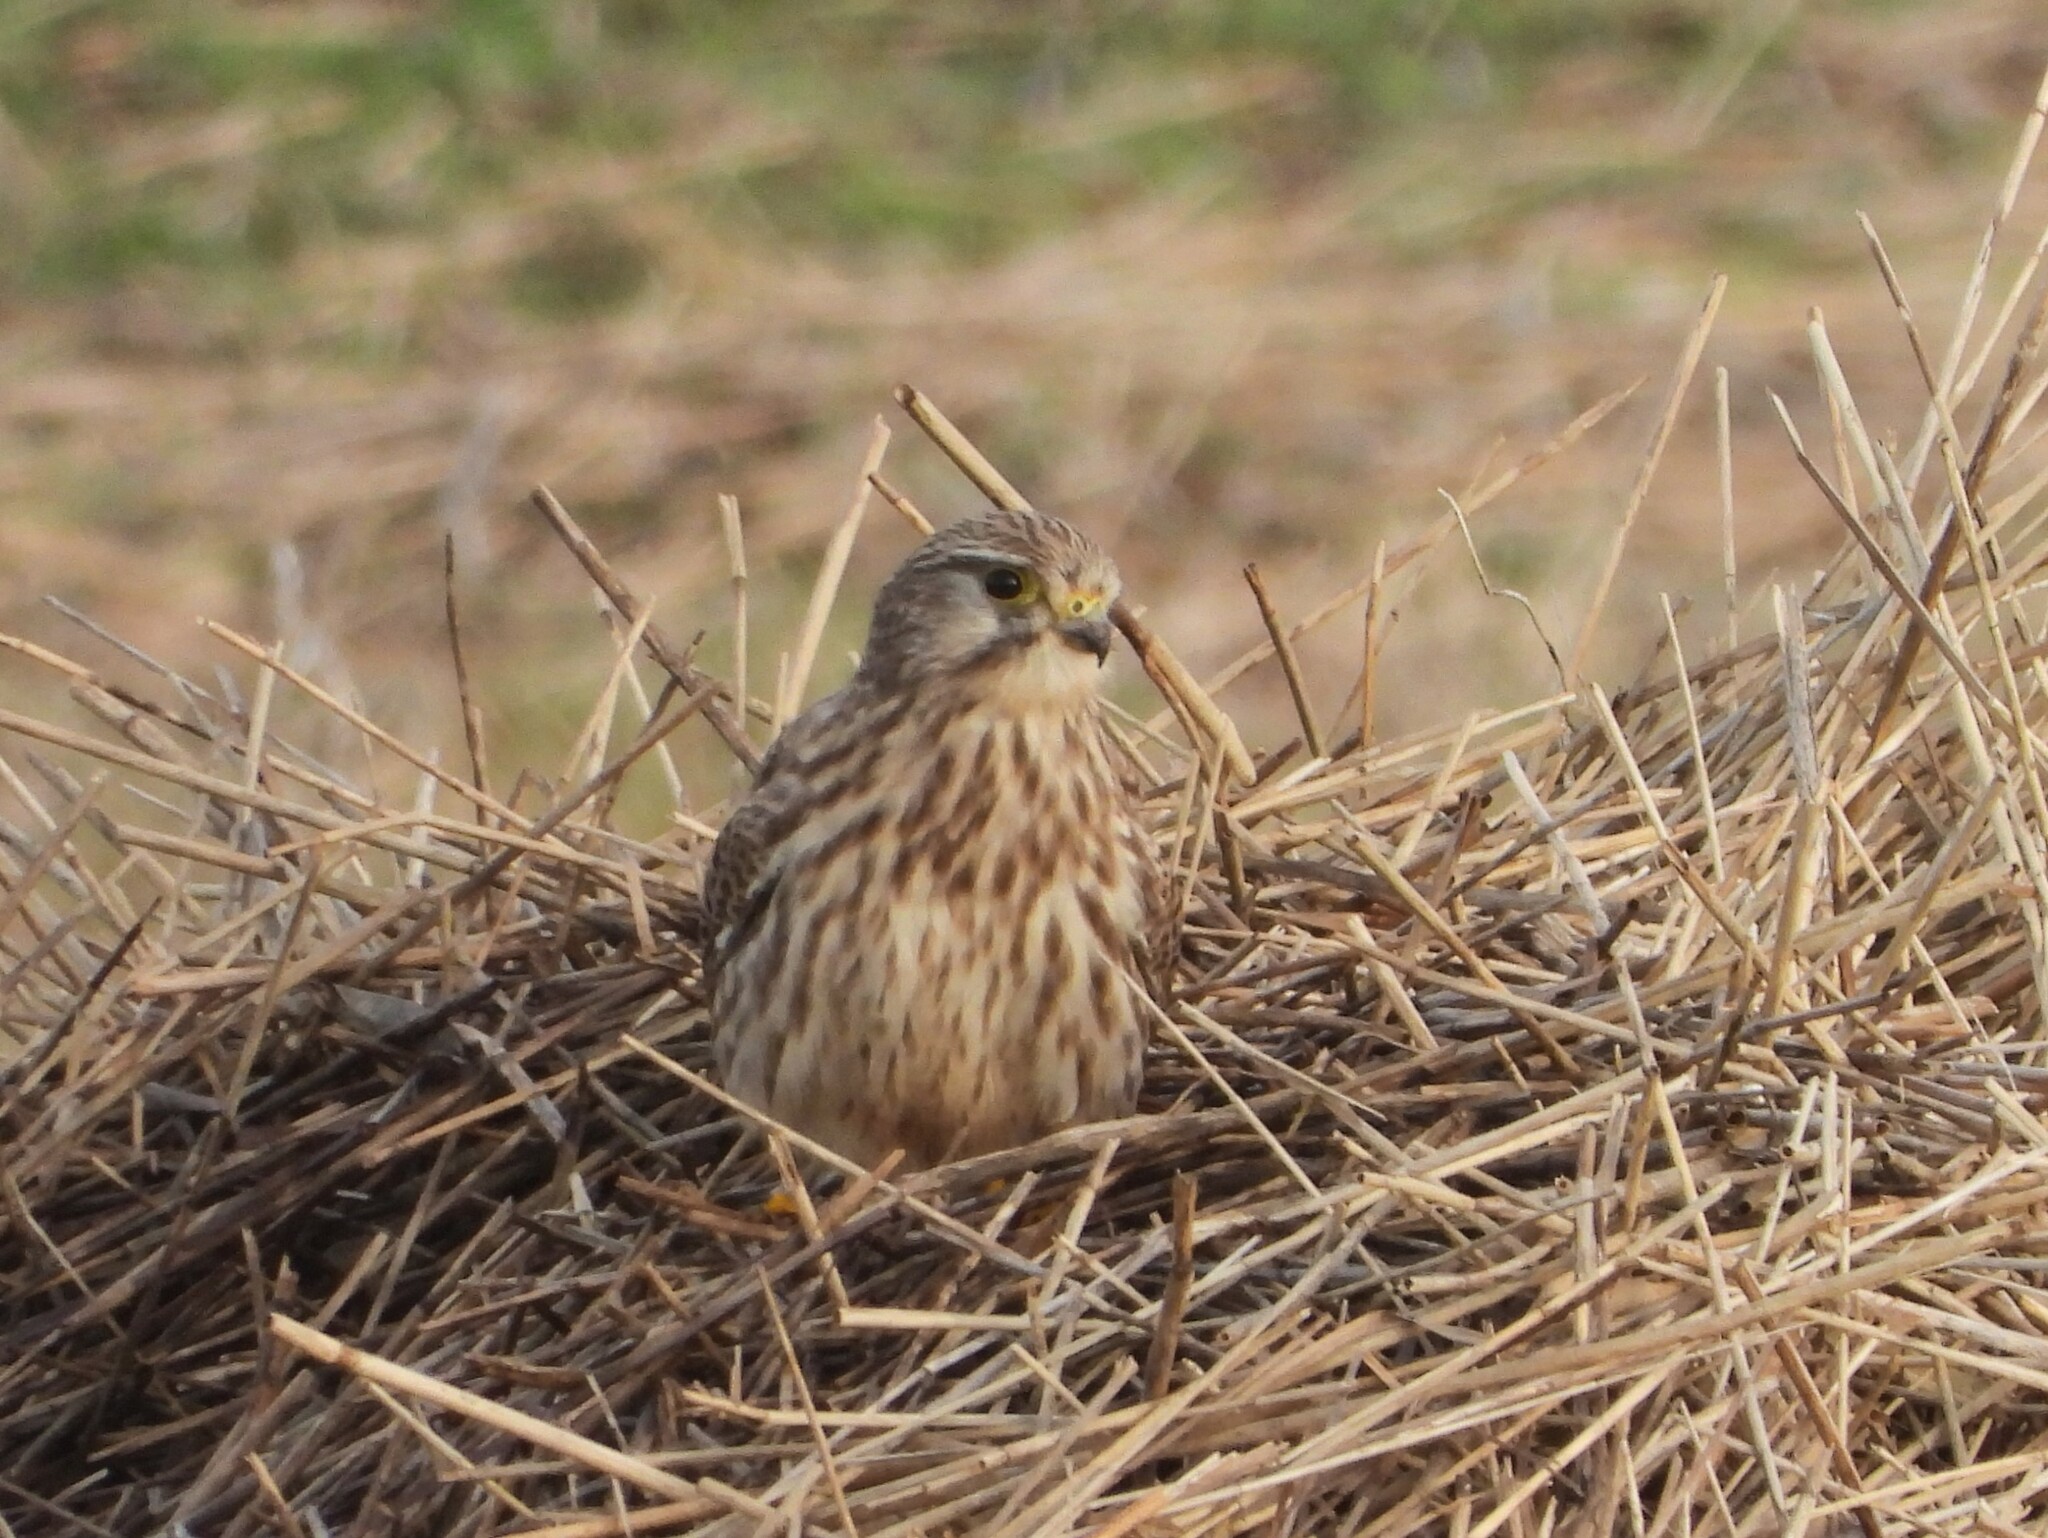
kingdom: Animalia
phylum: Chordata
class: Aves
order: Falconiformes
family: Falconidae
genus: Falco
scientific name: Falco tinnunculus
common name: Common kestrel
